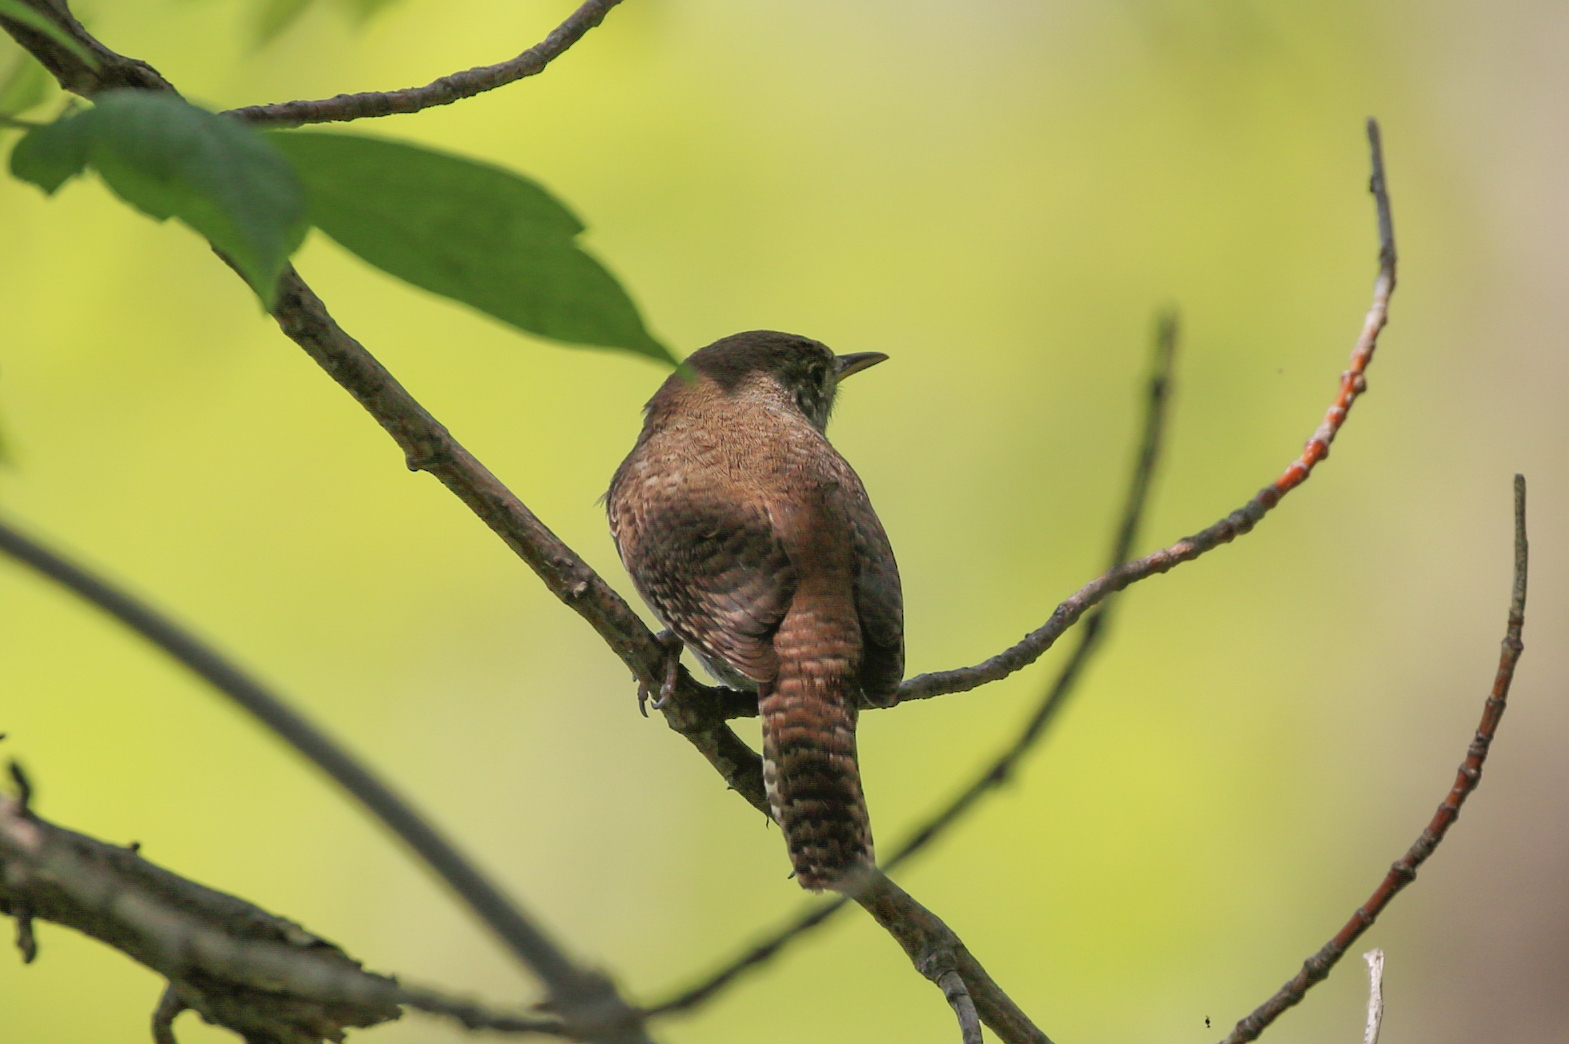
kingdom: Animalia
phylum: Chordata
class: Aves
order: Passeriformes
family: Troglodytidae
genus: Troglodytes
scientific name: Troglodytes aedon
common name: House wren
